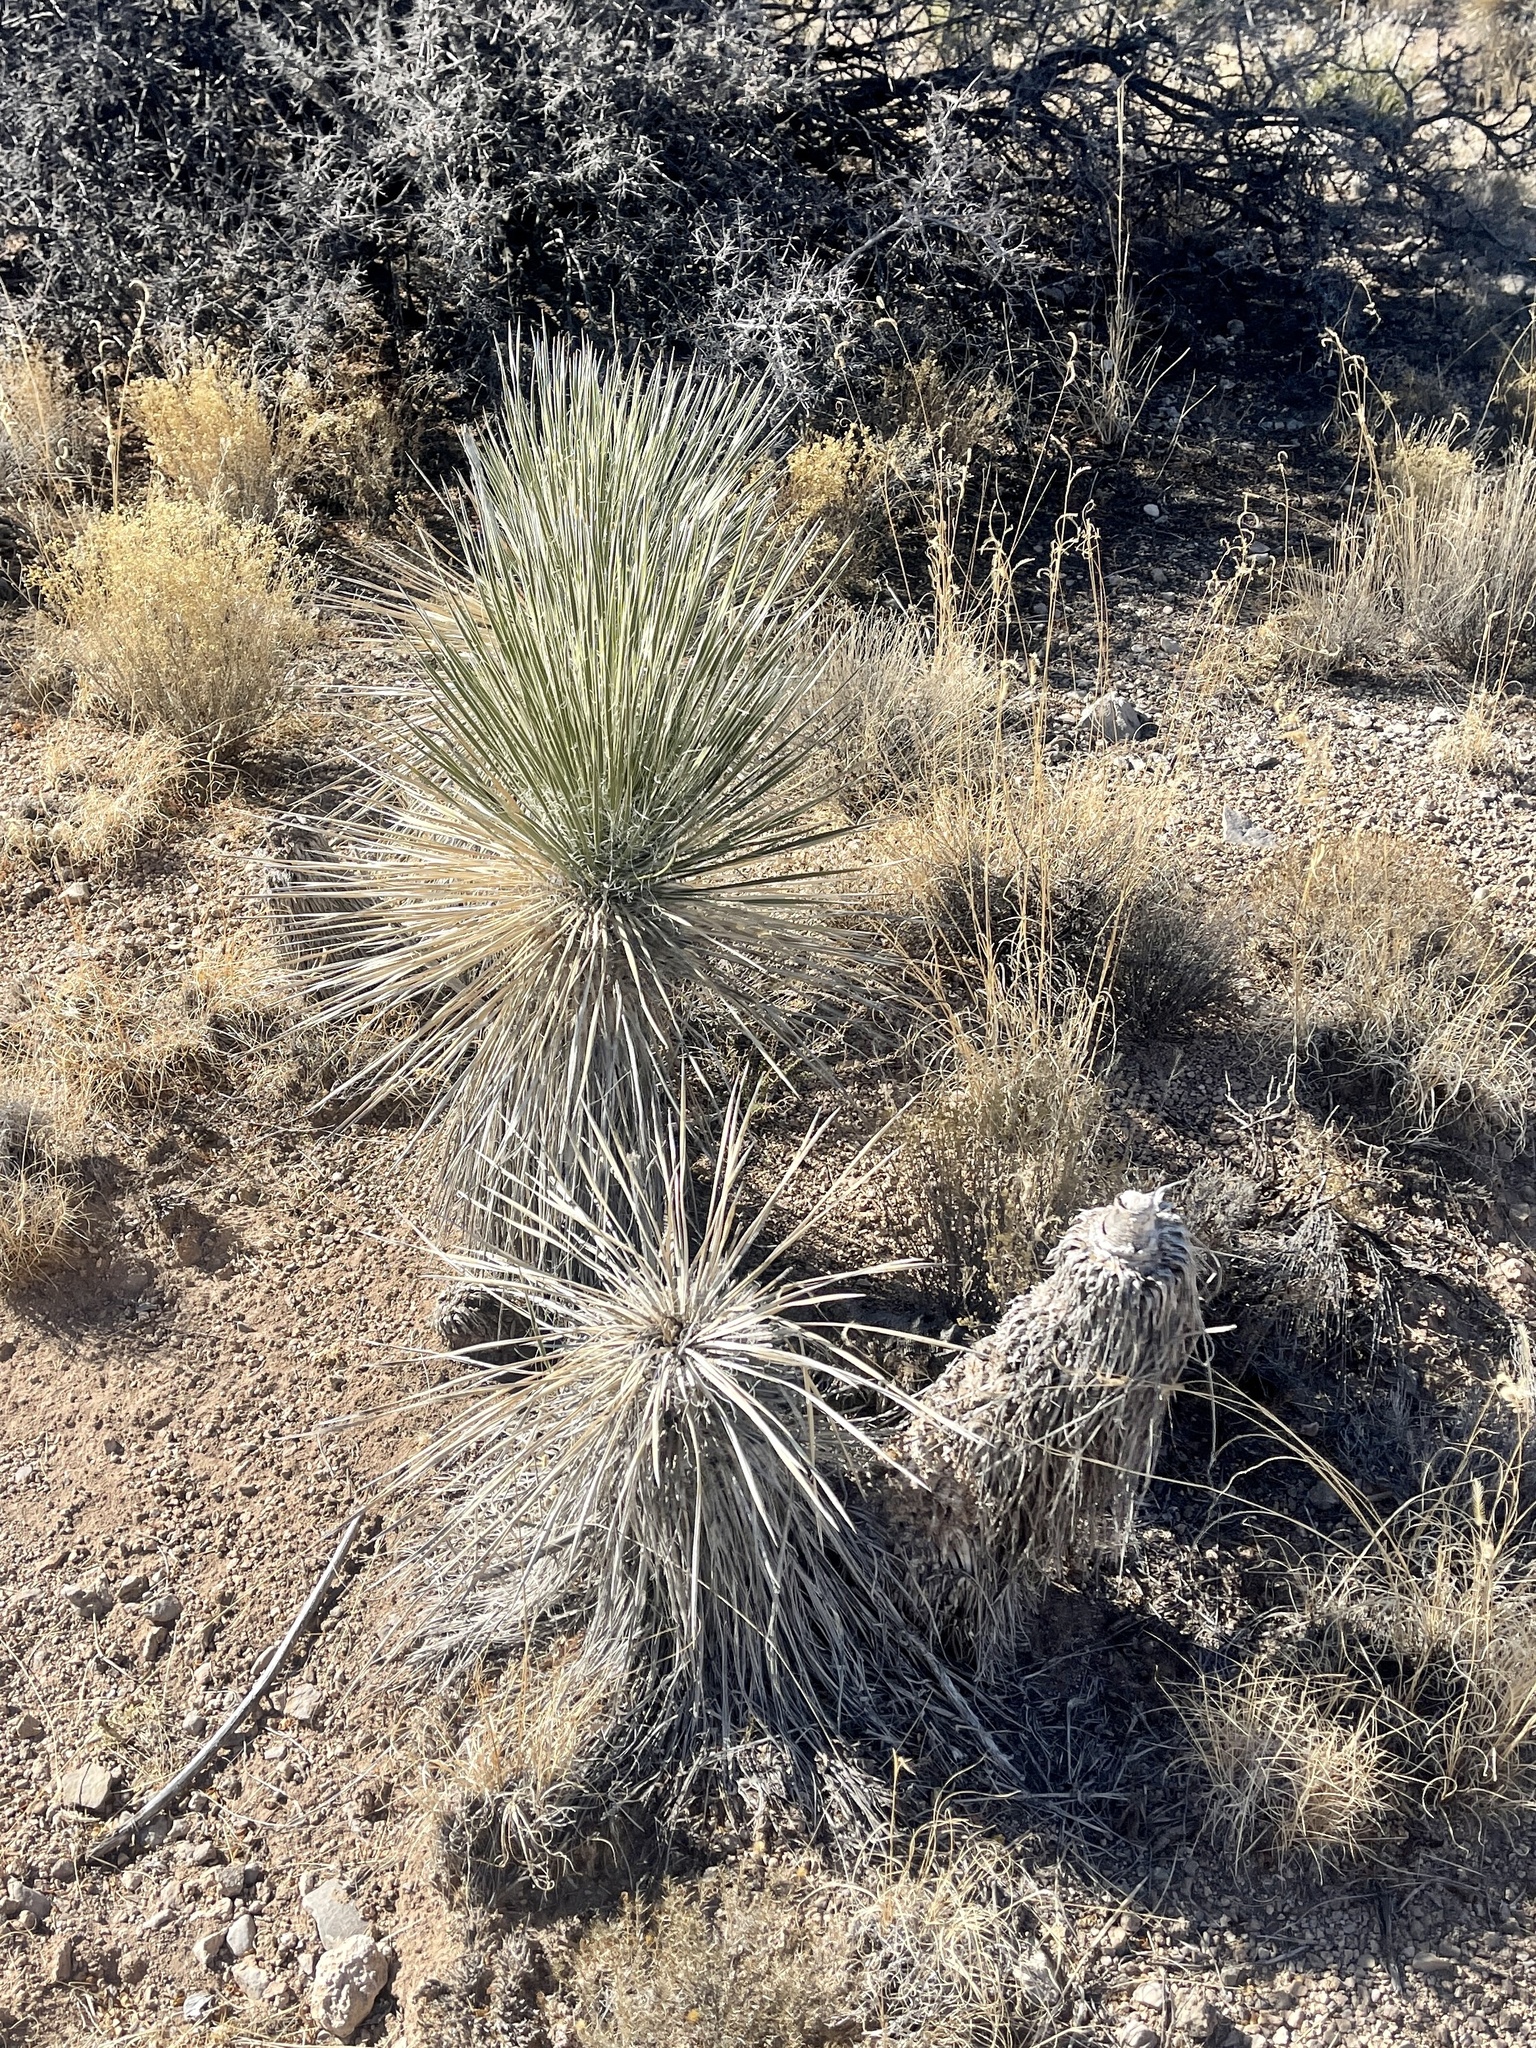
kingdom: Plantae
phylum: Tracheophyta
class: Liliopsida
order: Asparagales
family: Asparagaceae
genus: Yucca
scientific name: Yucca elata
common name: Palmella
